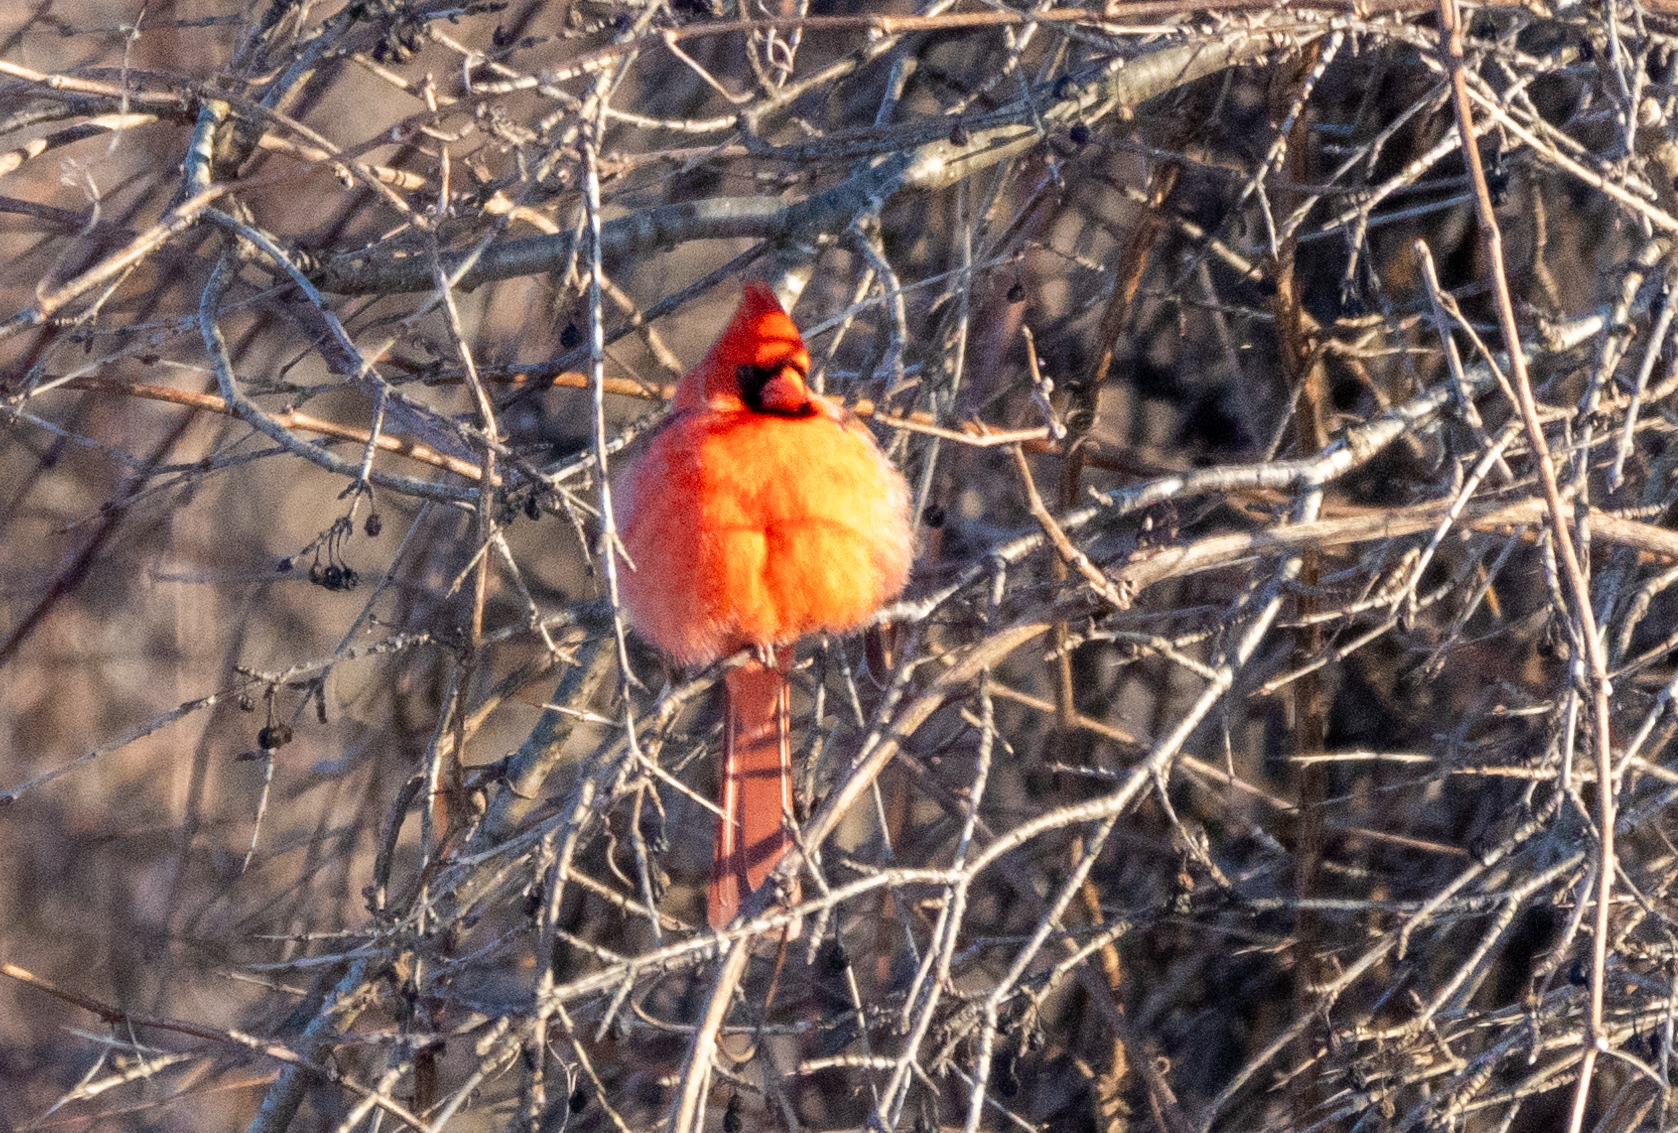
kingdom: Animalia
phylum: Chordata
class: Aves
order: Passeriformes
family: Cardinalidae
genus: Cardinalis
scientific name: Cardinalis cardinalis
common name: Northern cardinal
